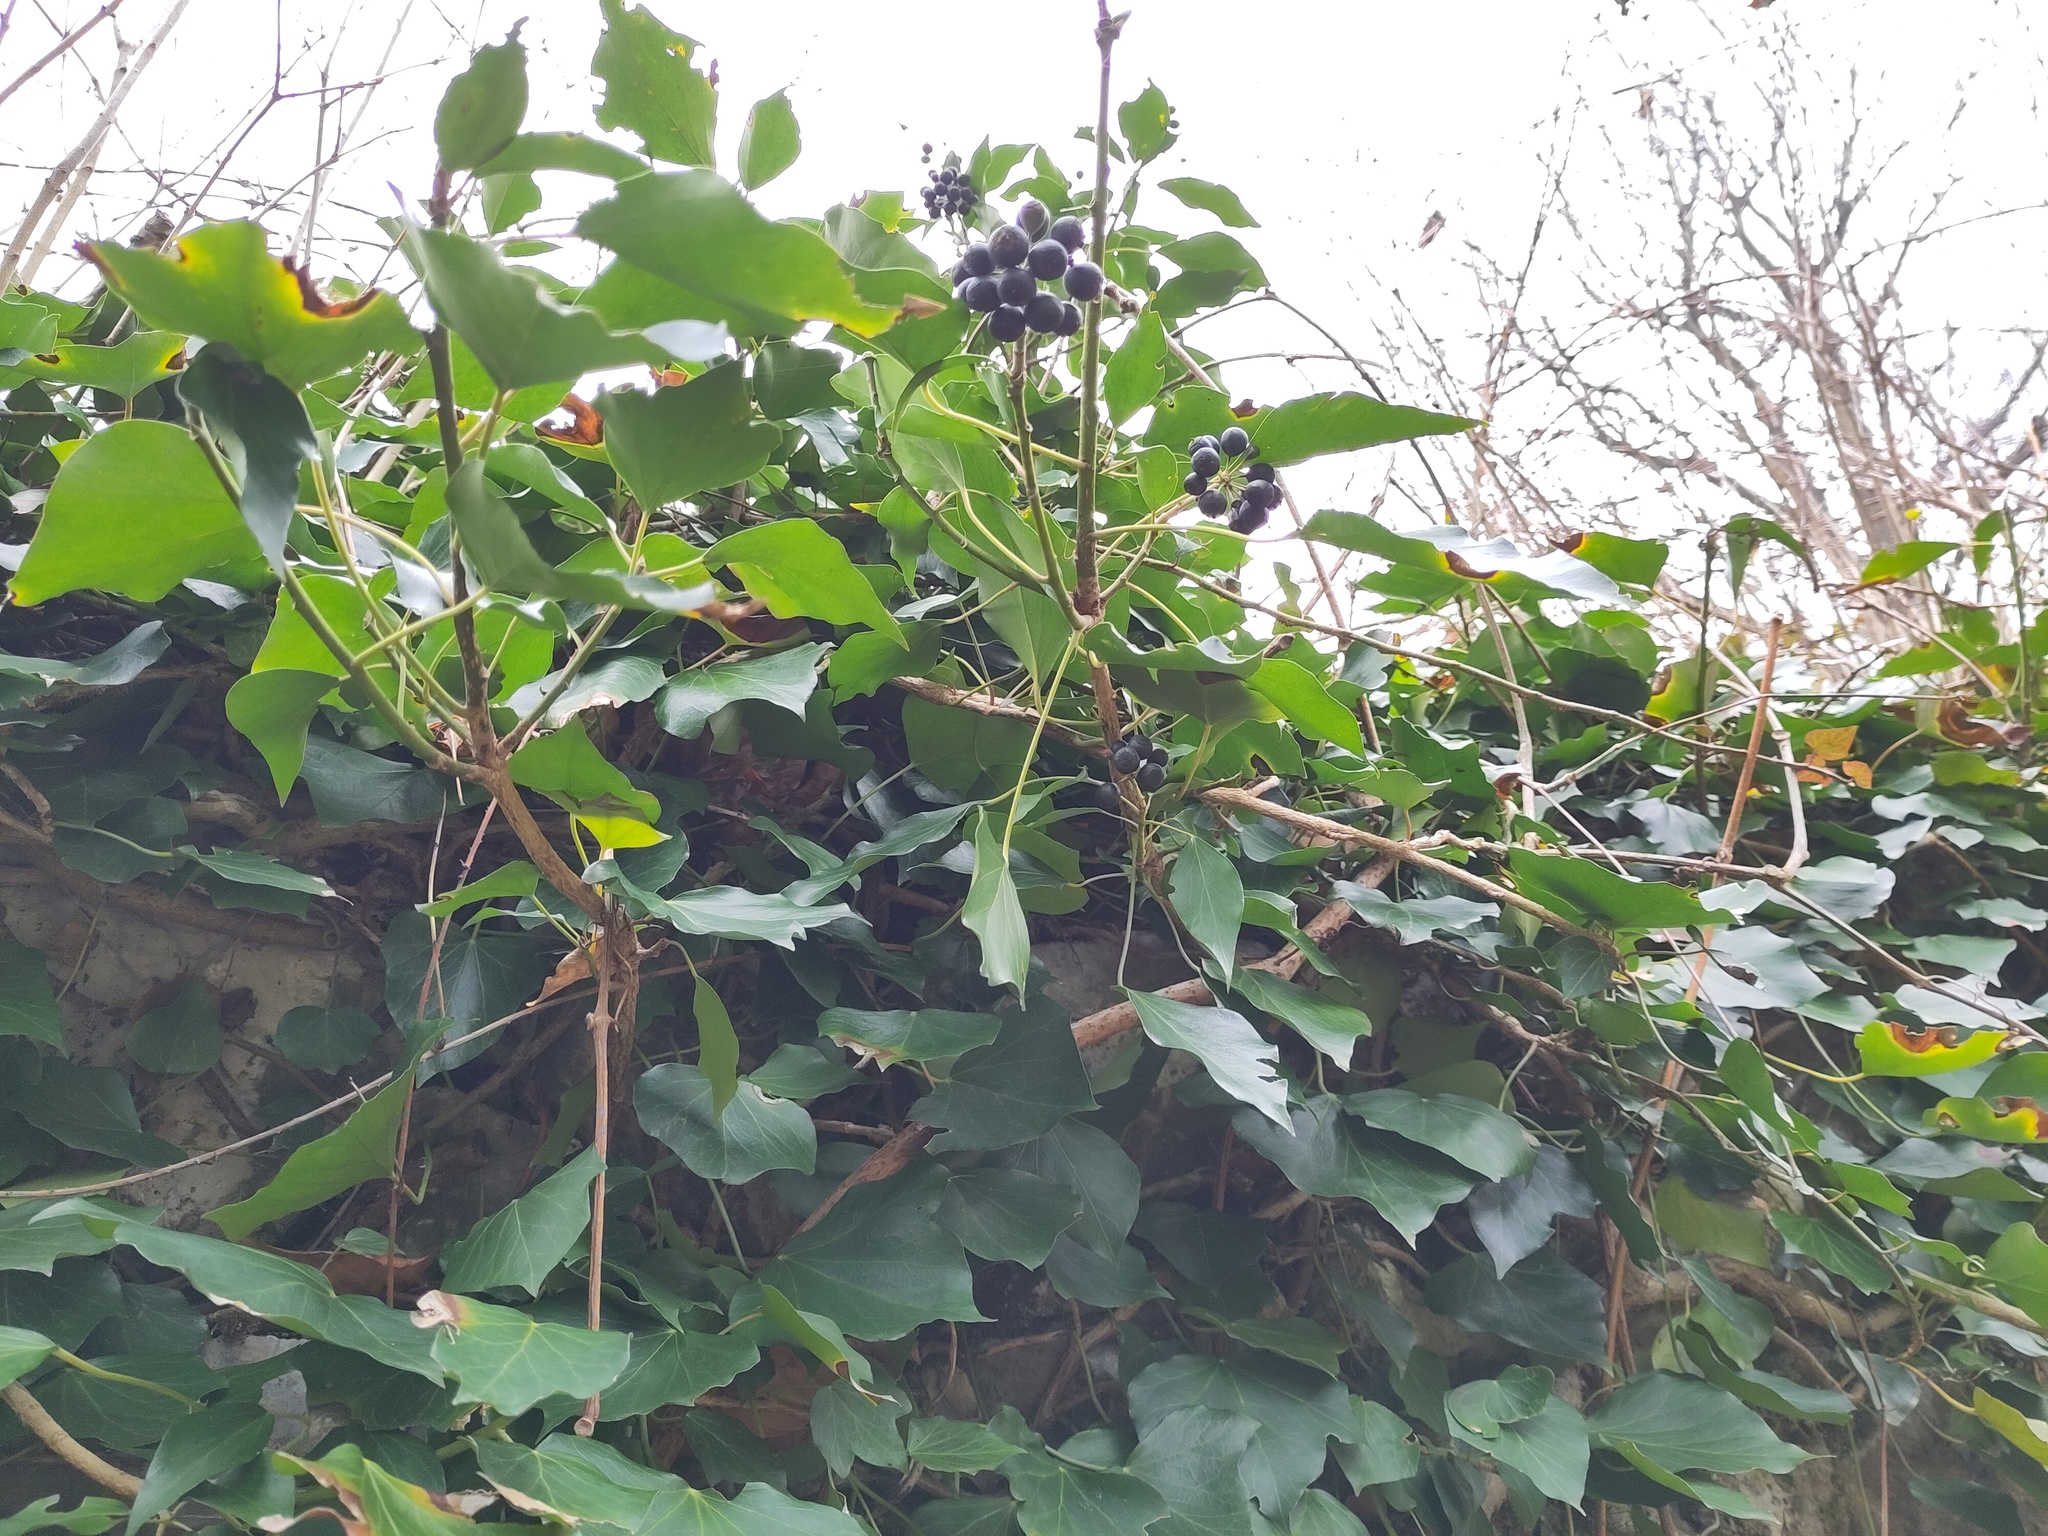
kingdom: Plantae
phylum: Tracheophyta
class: Magnoliopsida
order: Apiales
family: Araliaceae
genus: Hedera
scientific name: Hedera helix
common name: Ivy
